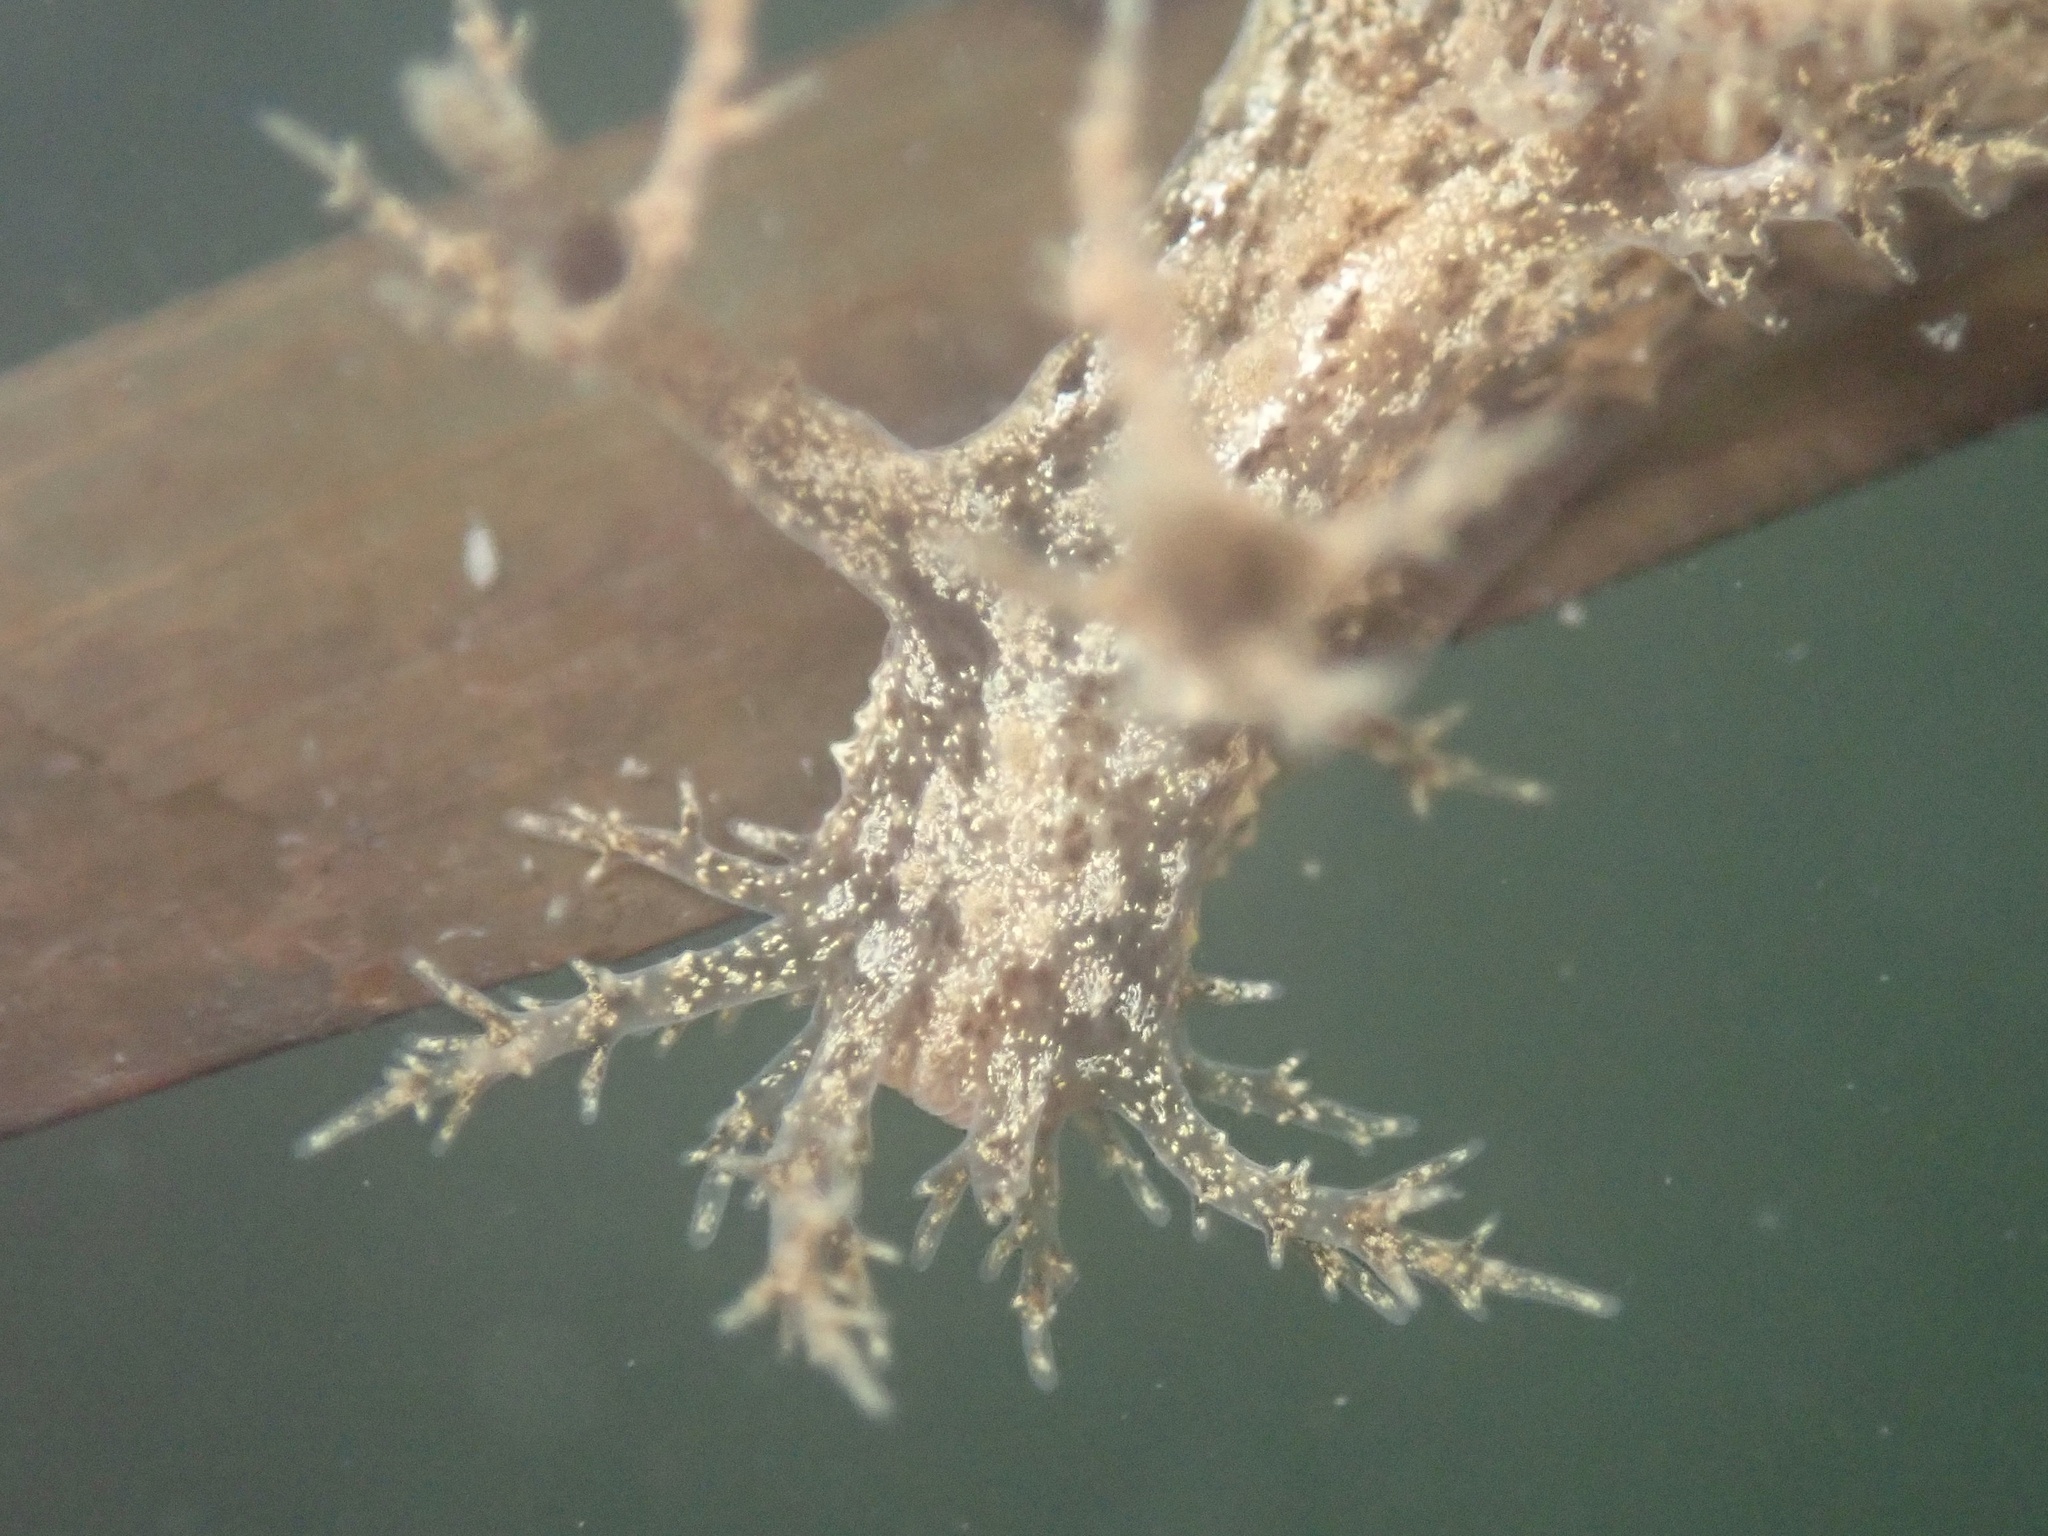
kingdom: Animalia
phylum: Mollusca
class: Gastropoda
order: Nudibranchia
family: Dendronotidae
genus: Dendronotus
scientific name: Dendronotus venustus
